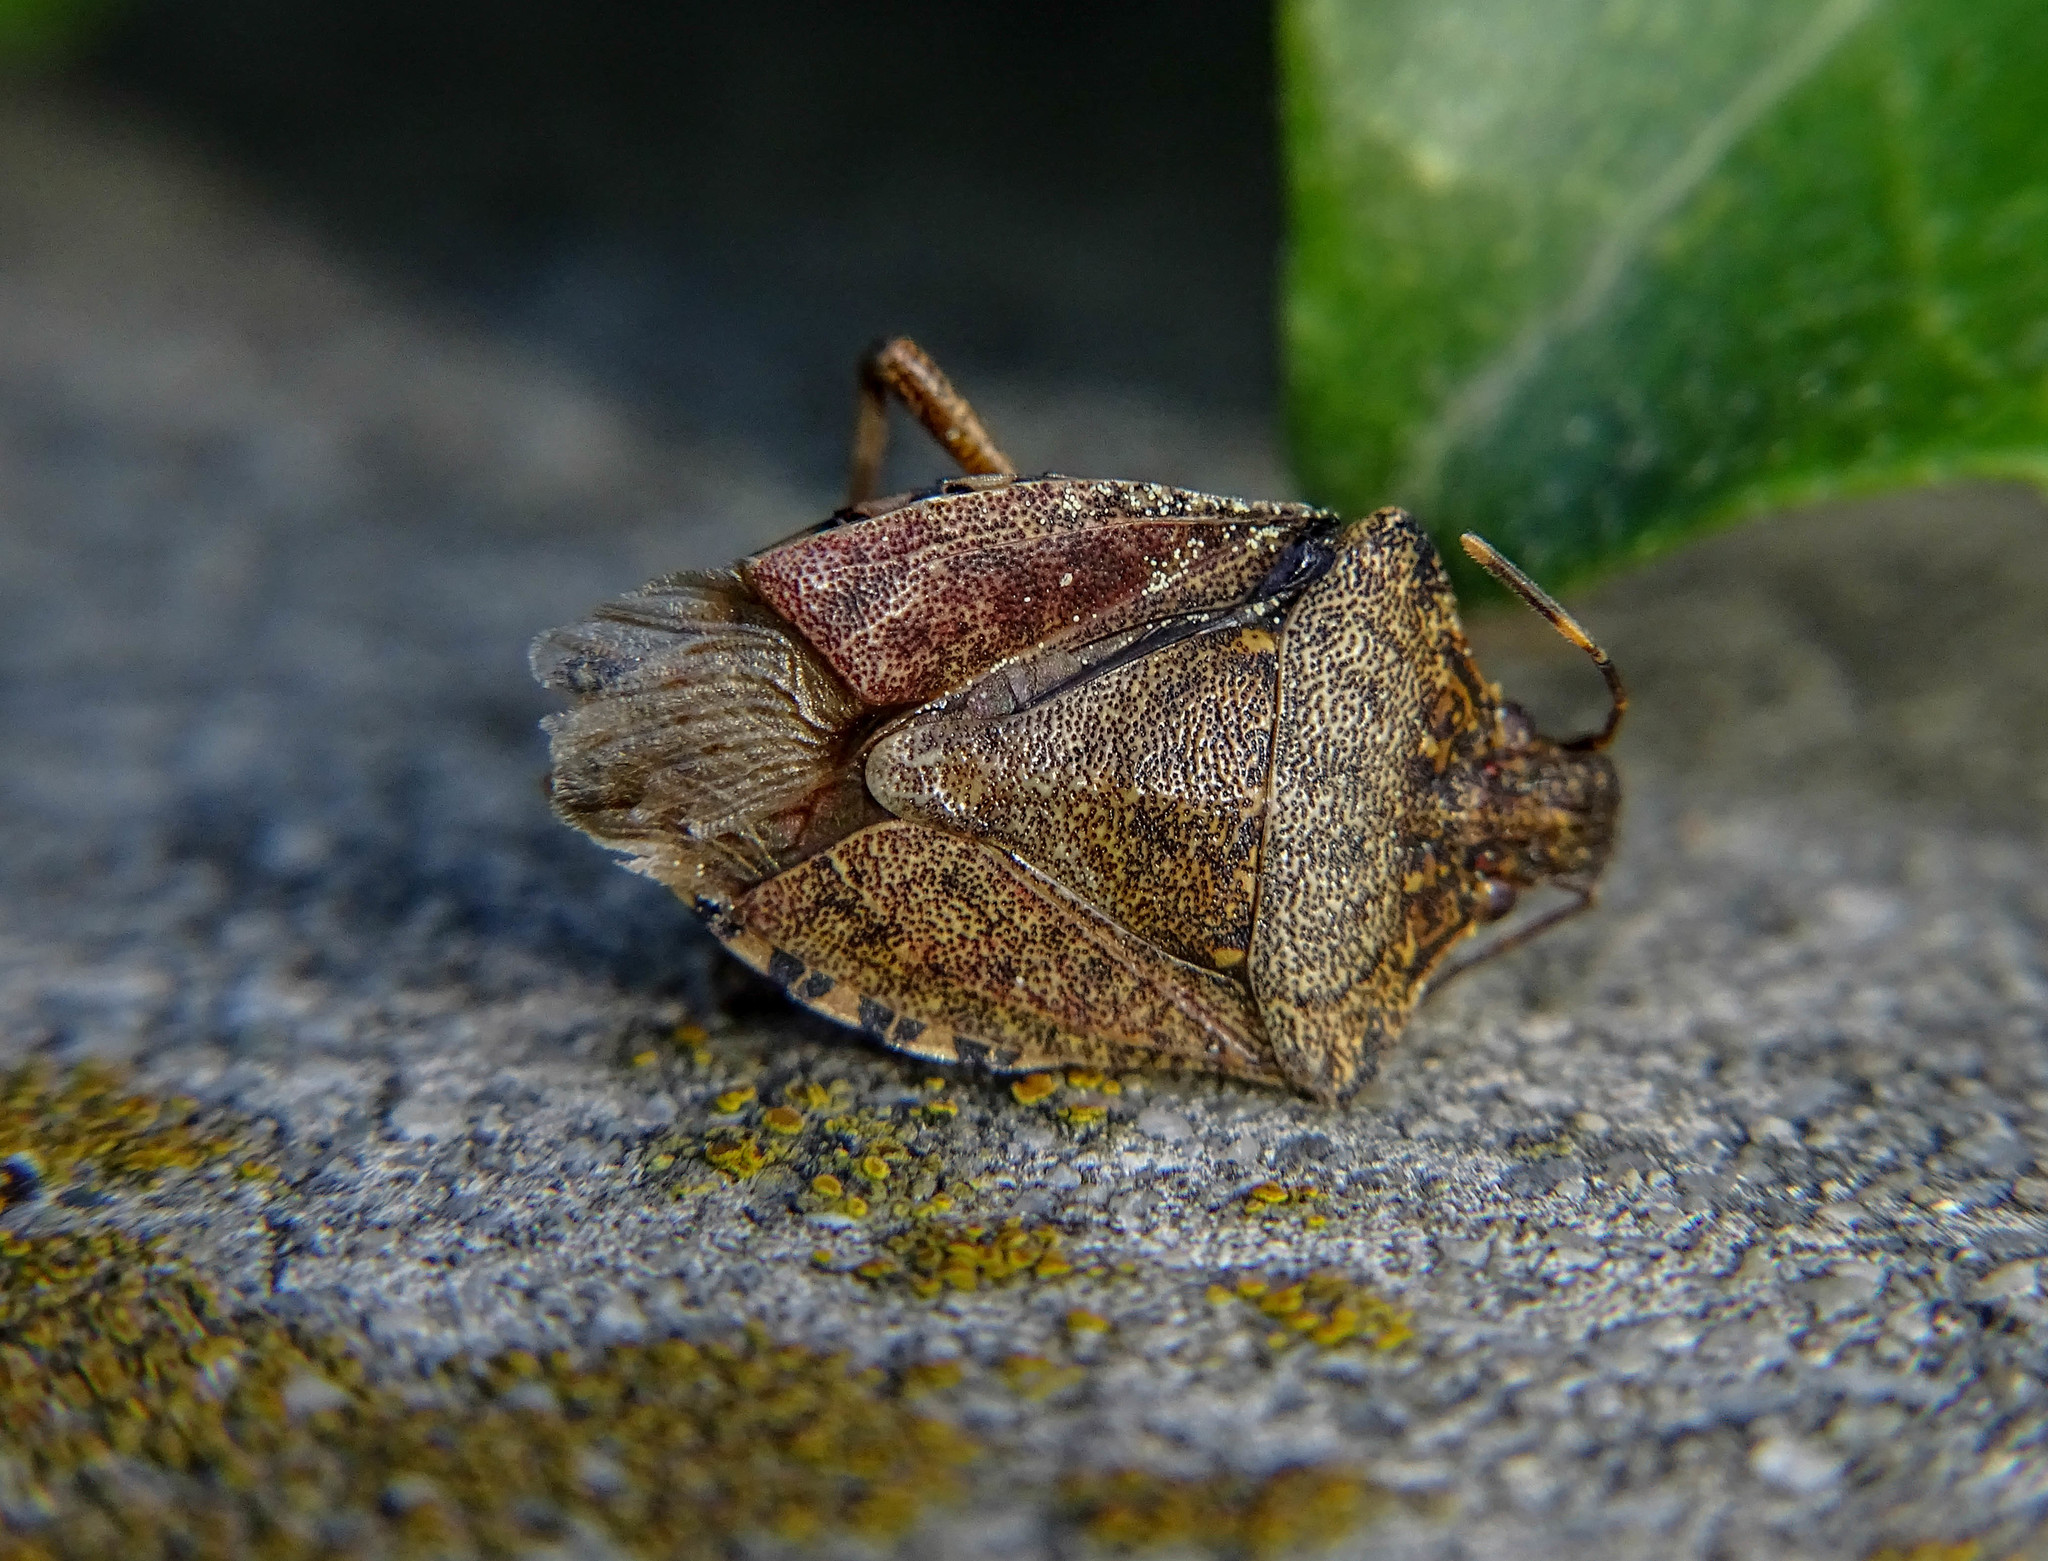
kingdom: Animalia
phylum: Arthropoda
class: Insecta
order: Hemiptera
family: Pentatomidae
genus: Halyomorpha
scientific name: Halyomorpha halys
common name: Brown marmorated stink bug
